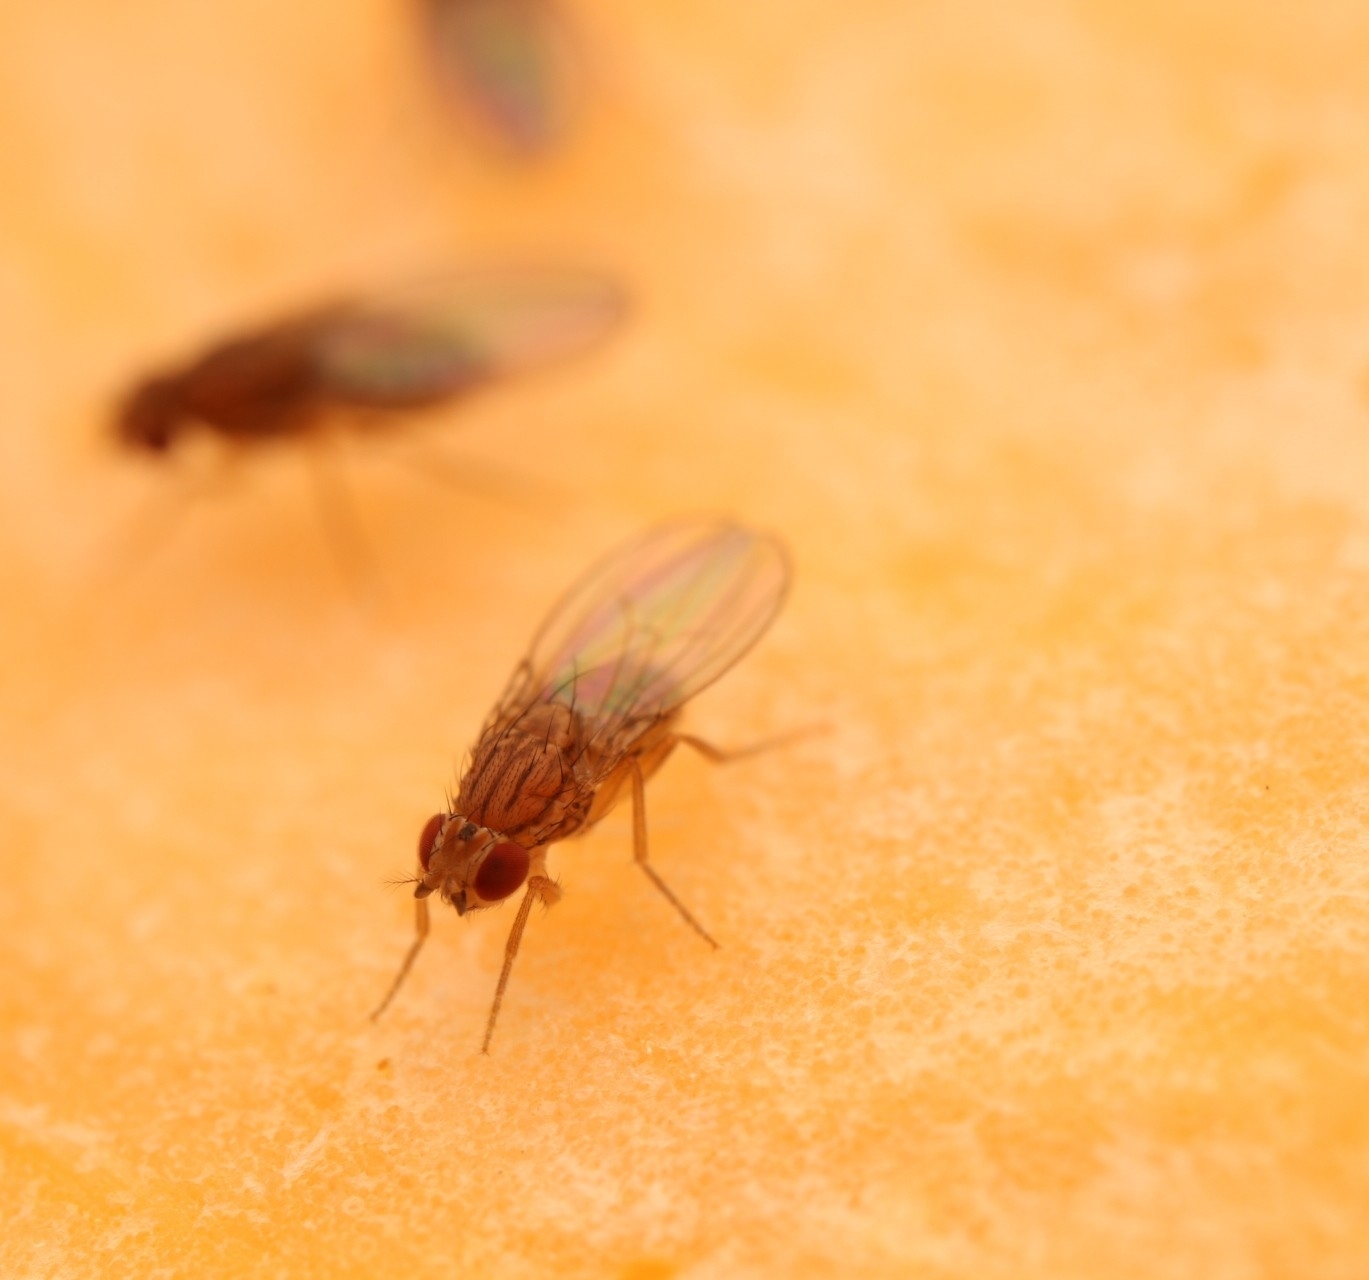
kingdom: Animalia
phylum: Arthropoda
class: Insecta
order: Diptera
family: Drosophilidae
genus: Drosophila
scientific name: Drosophila busckii
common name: Pomace fly
